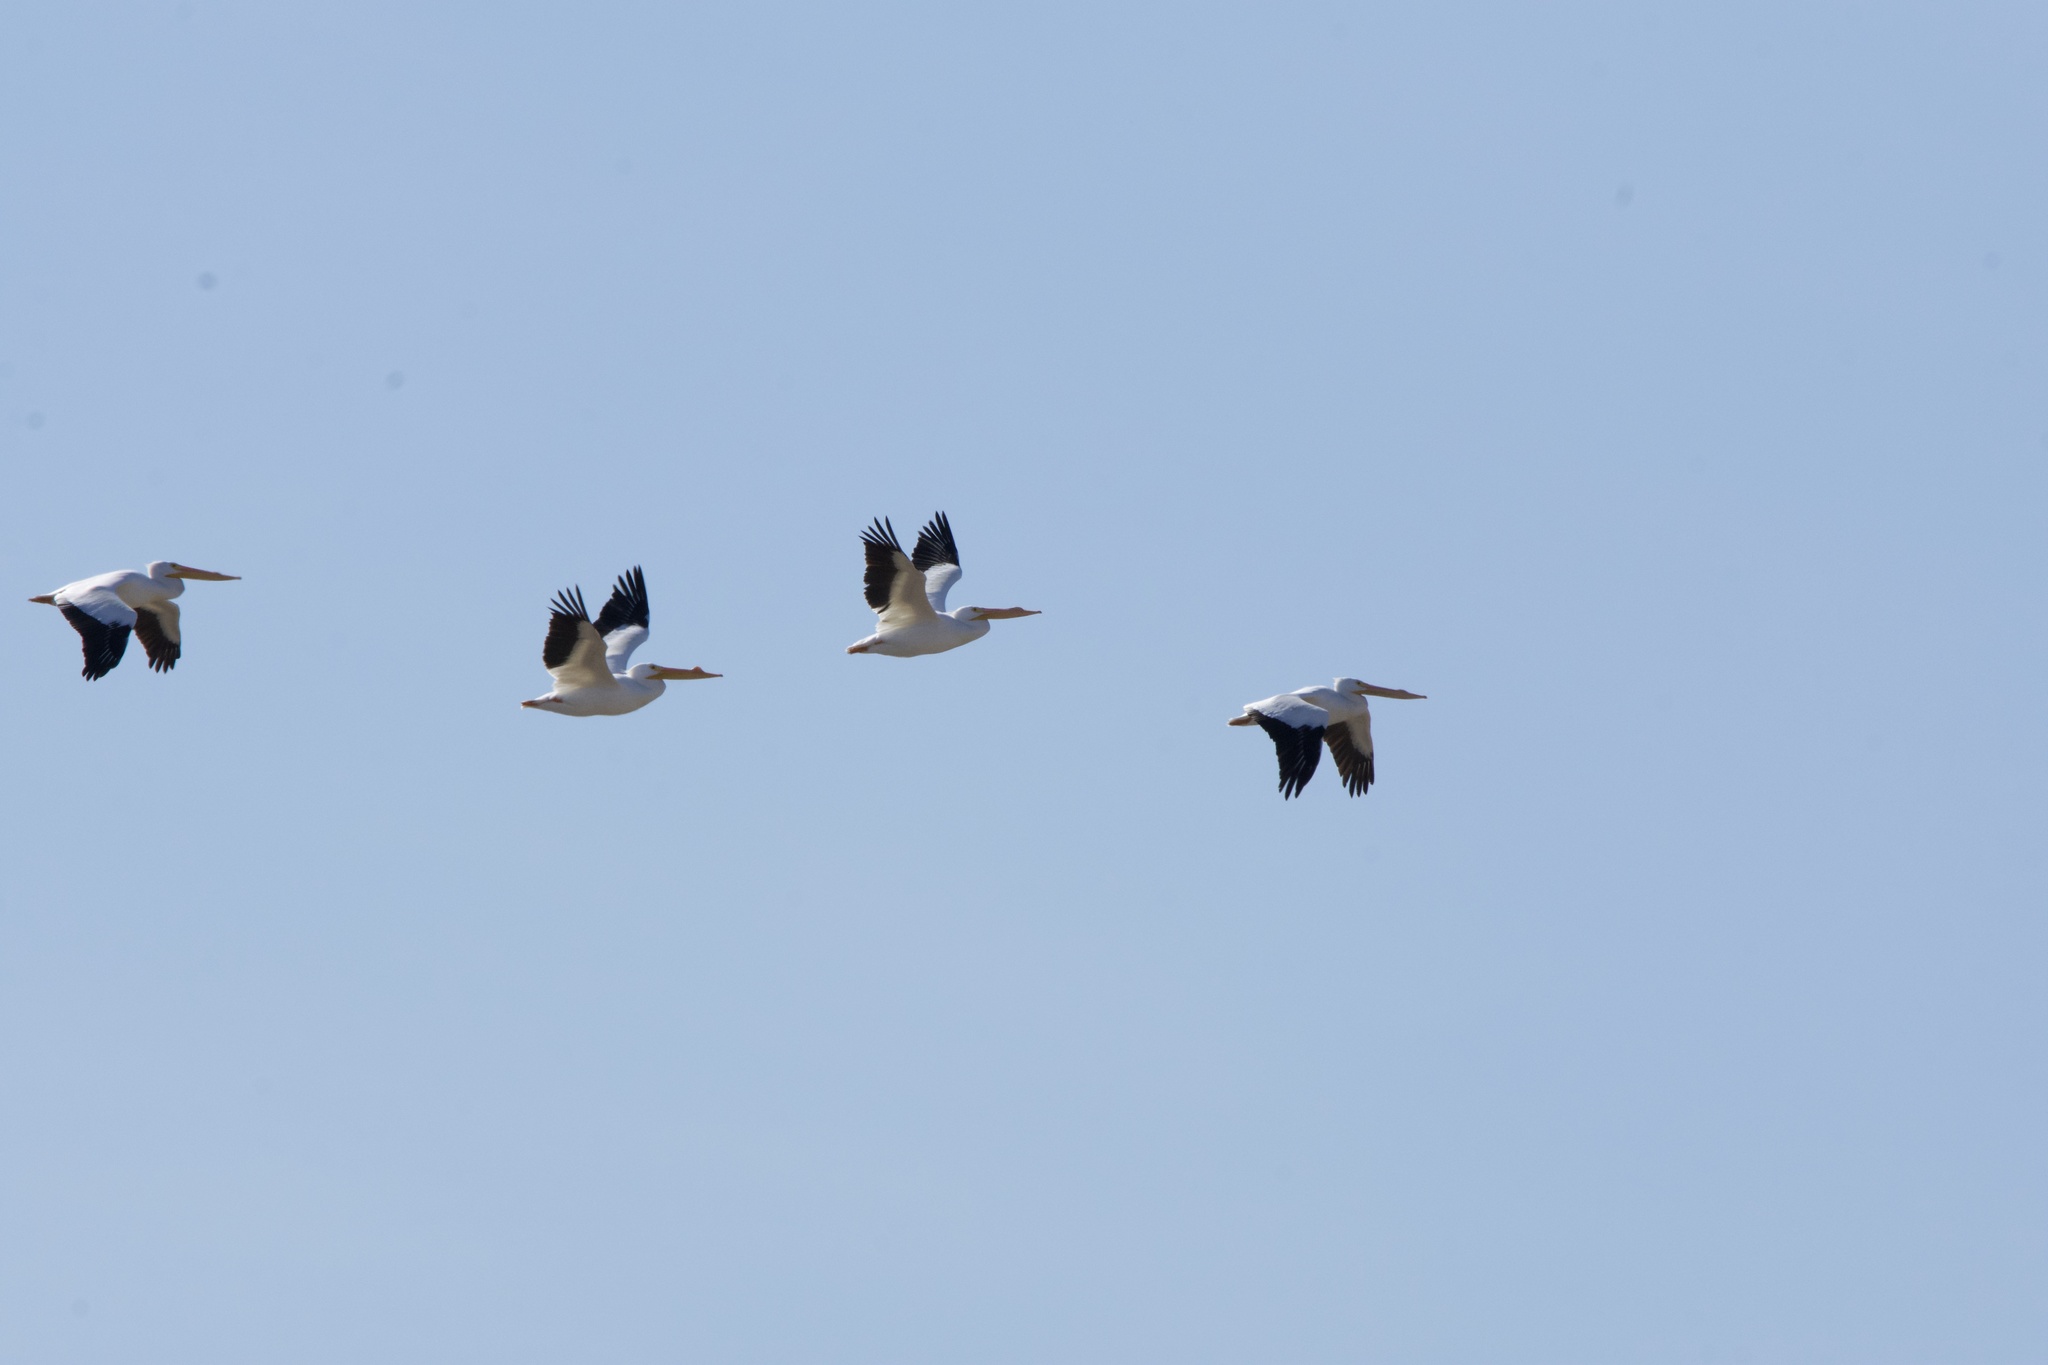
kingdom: Animalia
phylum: Chordata
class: Aves
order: Pelecaniformes
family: Pelecanidae
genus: Pelecanus
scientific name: Pelecanus erythrorhynchos
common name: American white pelican
